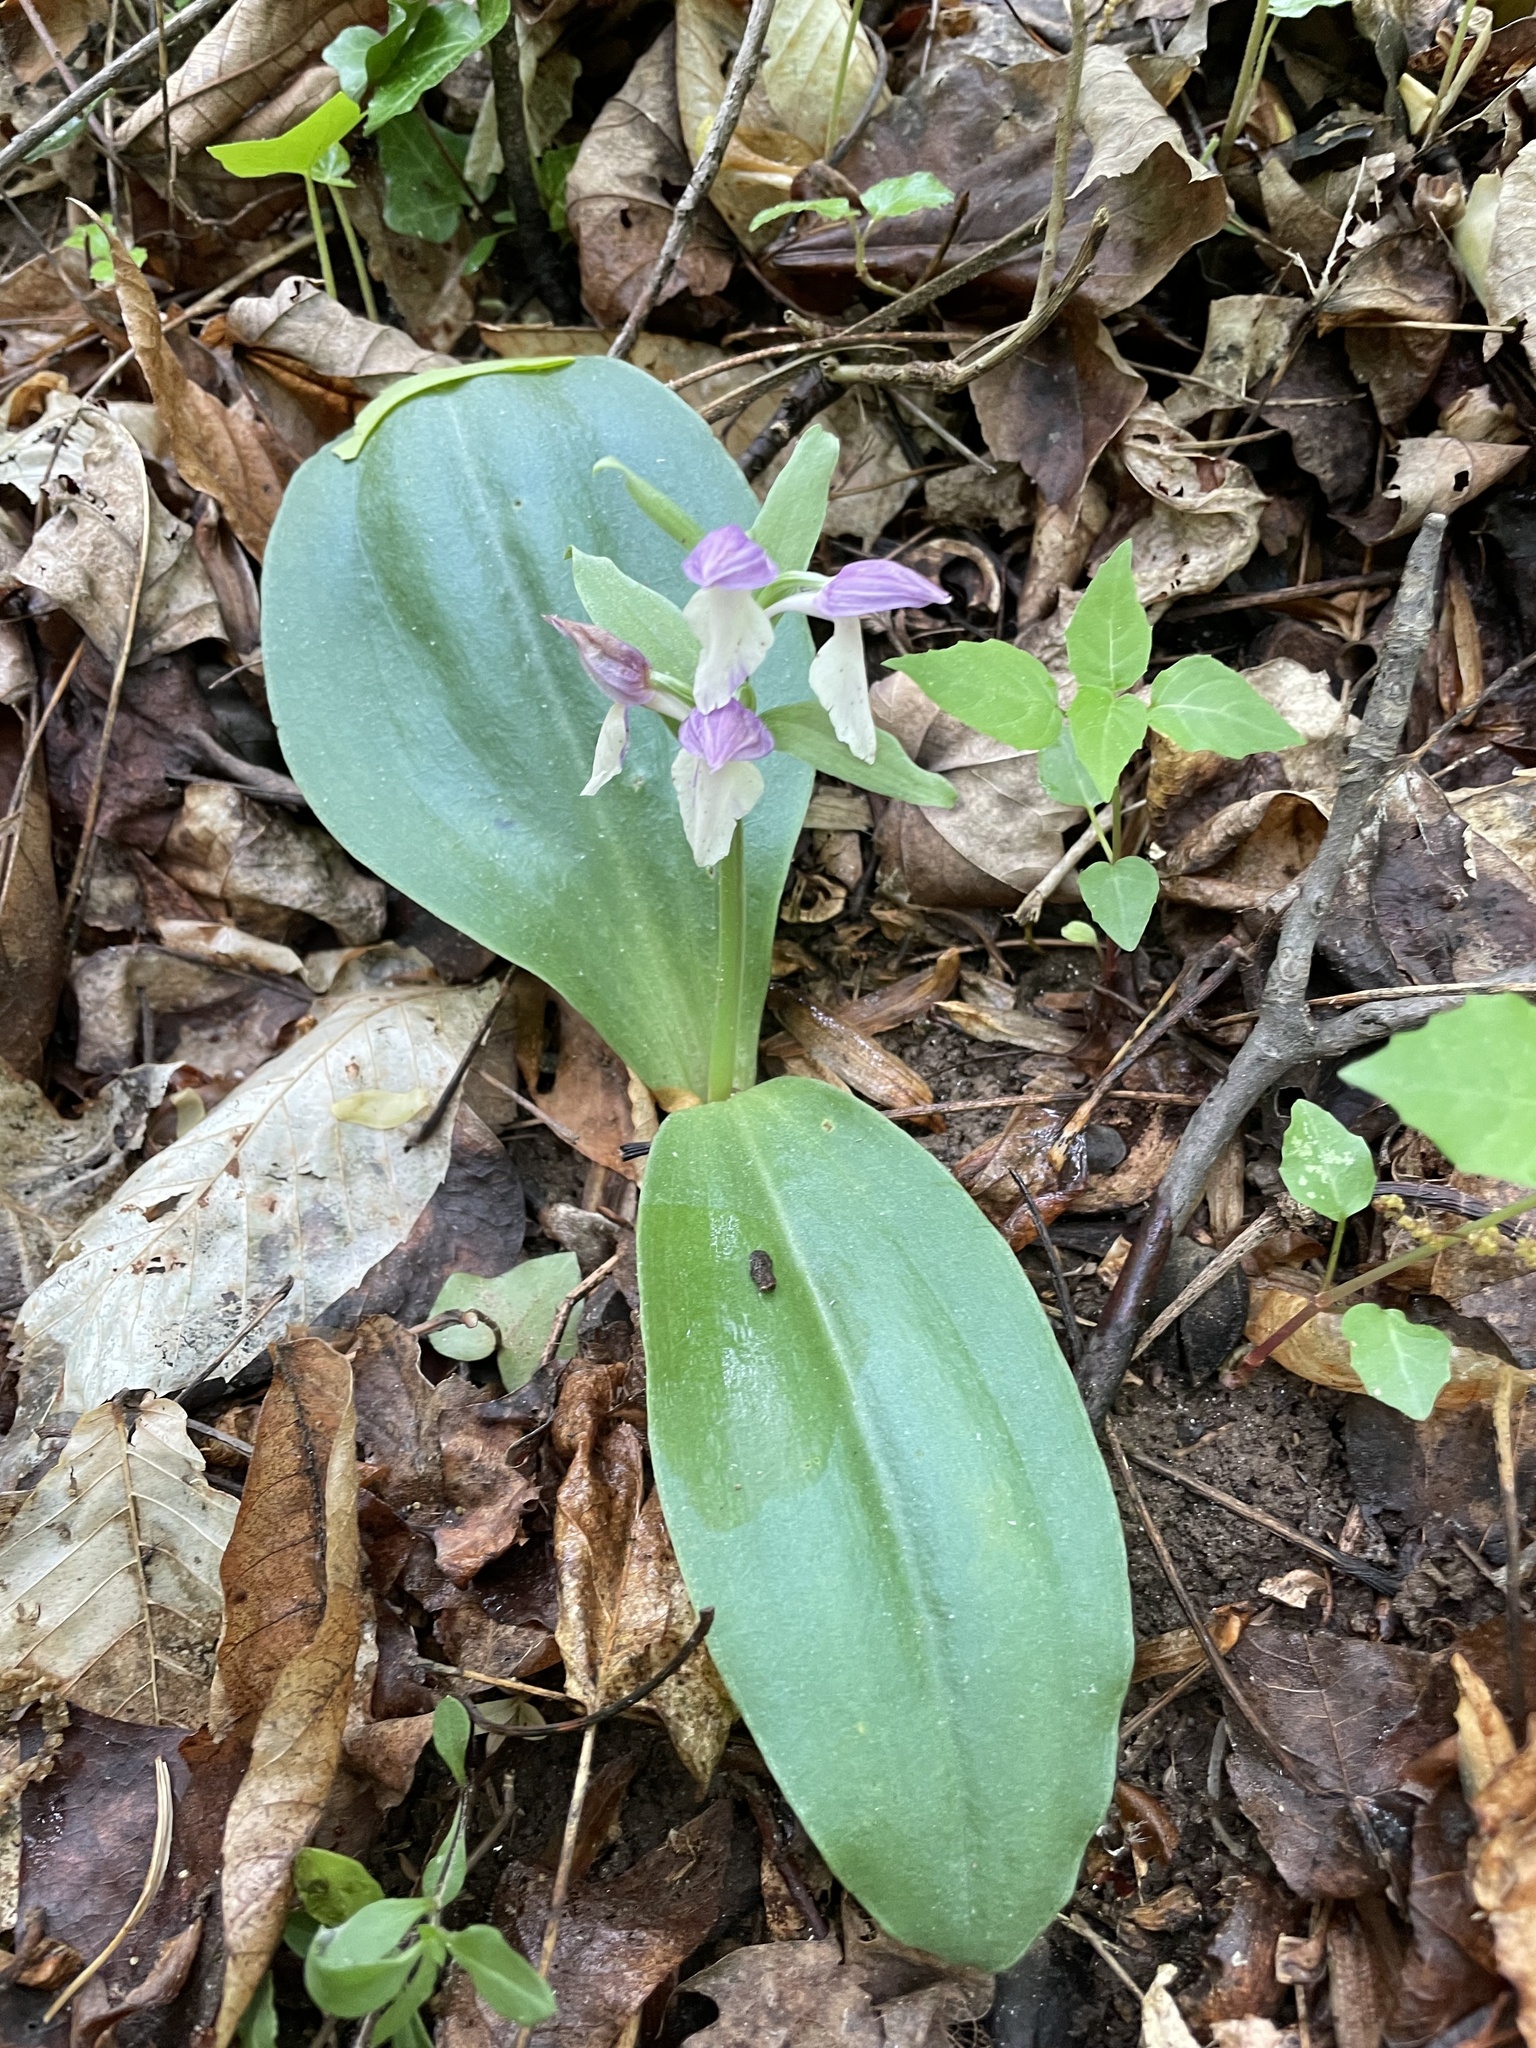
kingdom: Plantae
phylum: Tracheophyta
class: Liliopsida
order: Asparagales
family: Orchidaceae
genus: Galearis
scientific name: Galearis spectabilis
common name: Purple-hooded orchis
